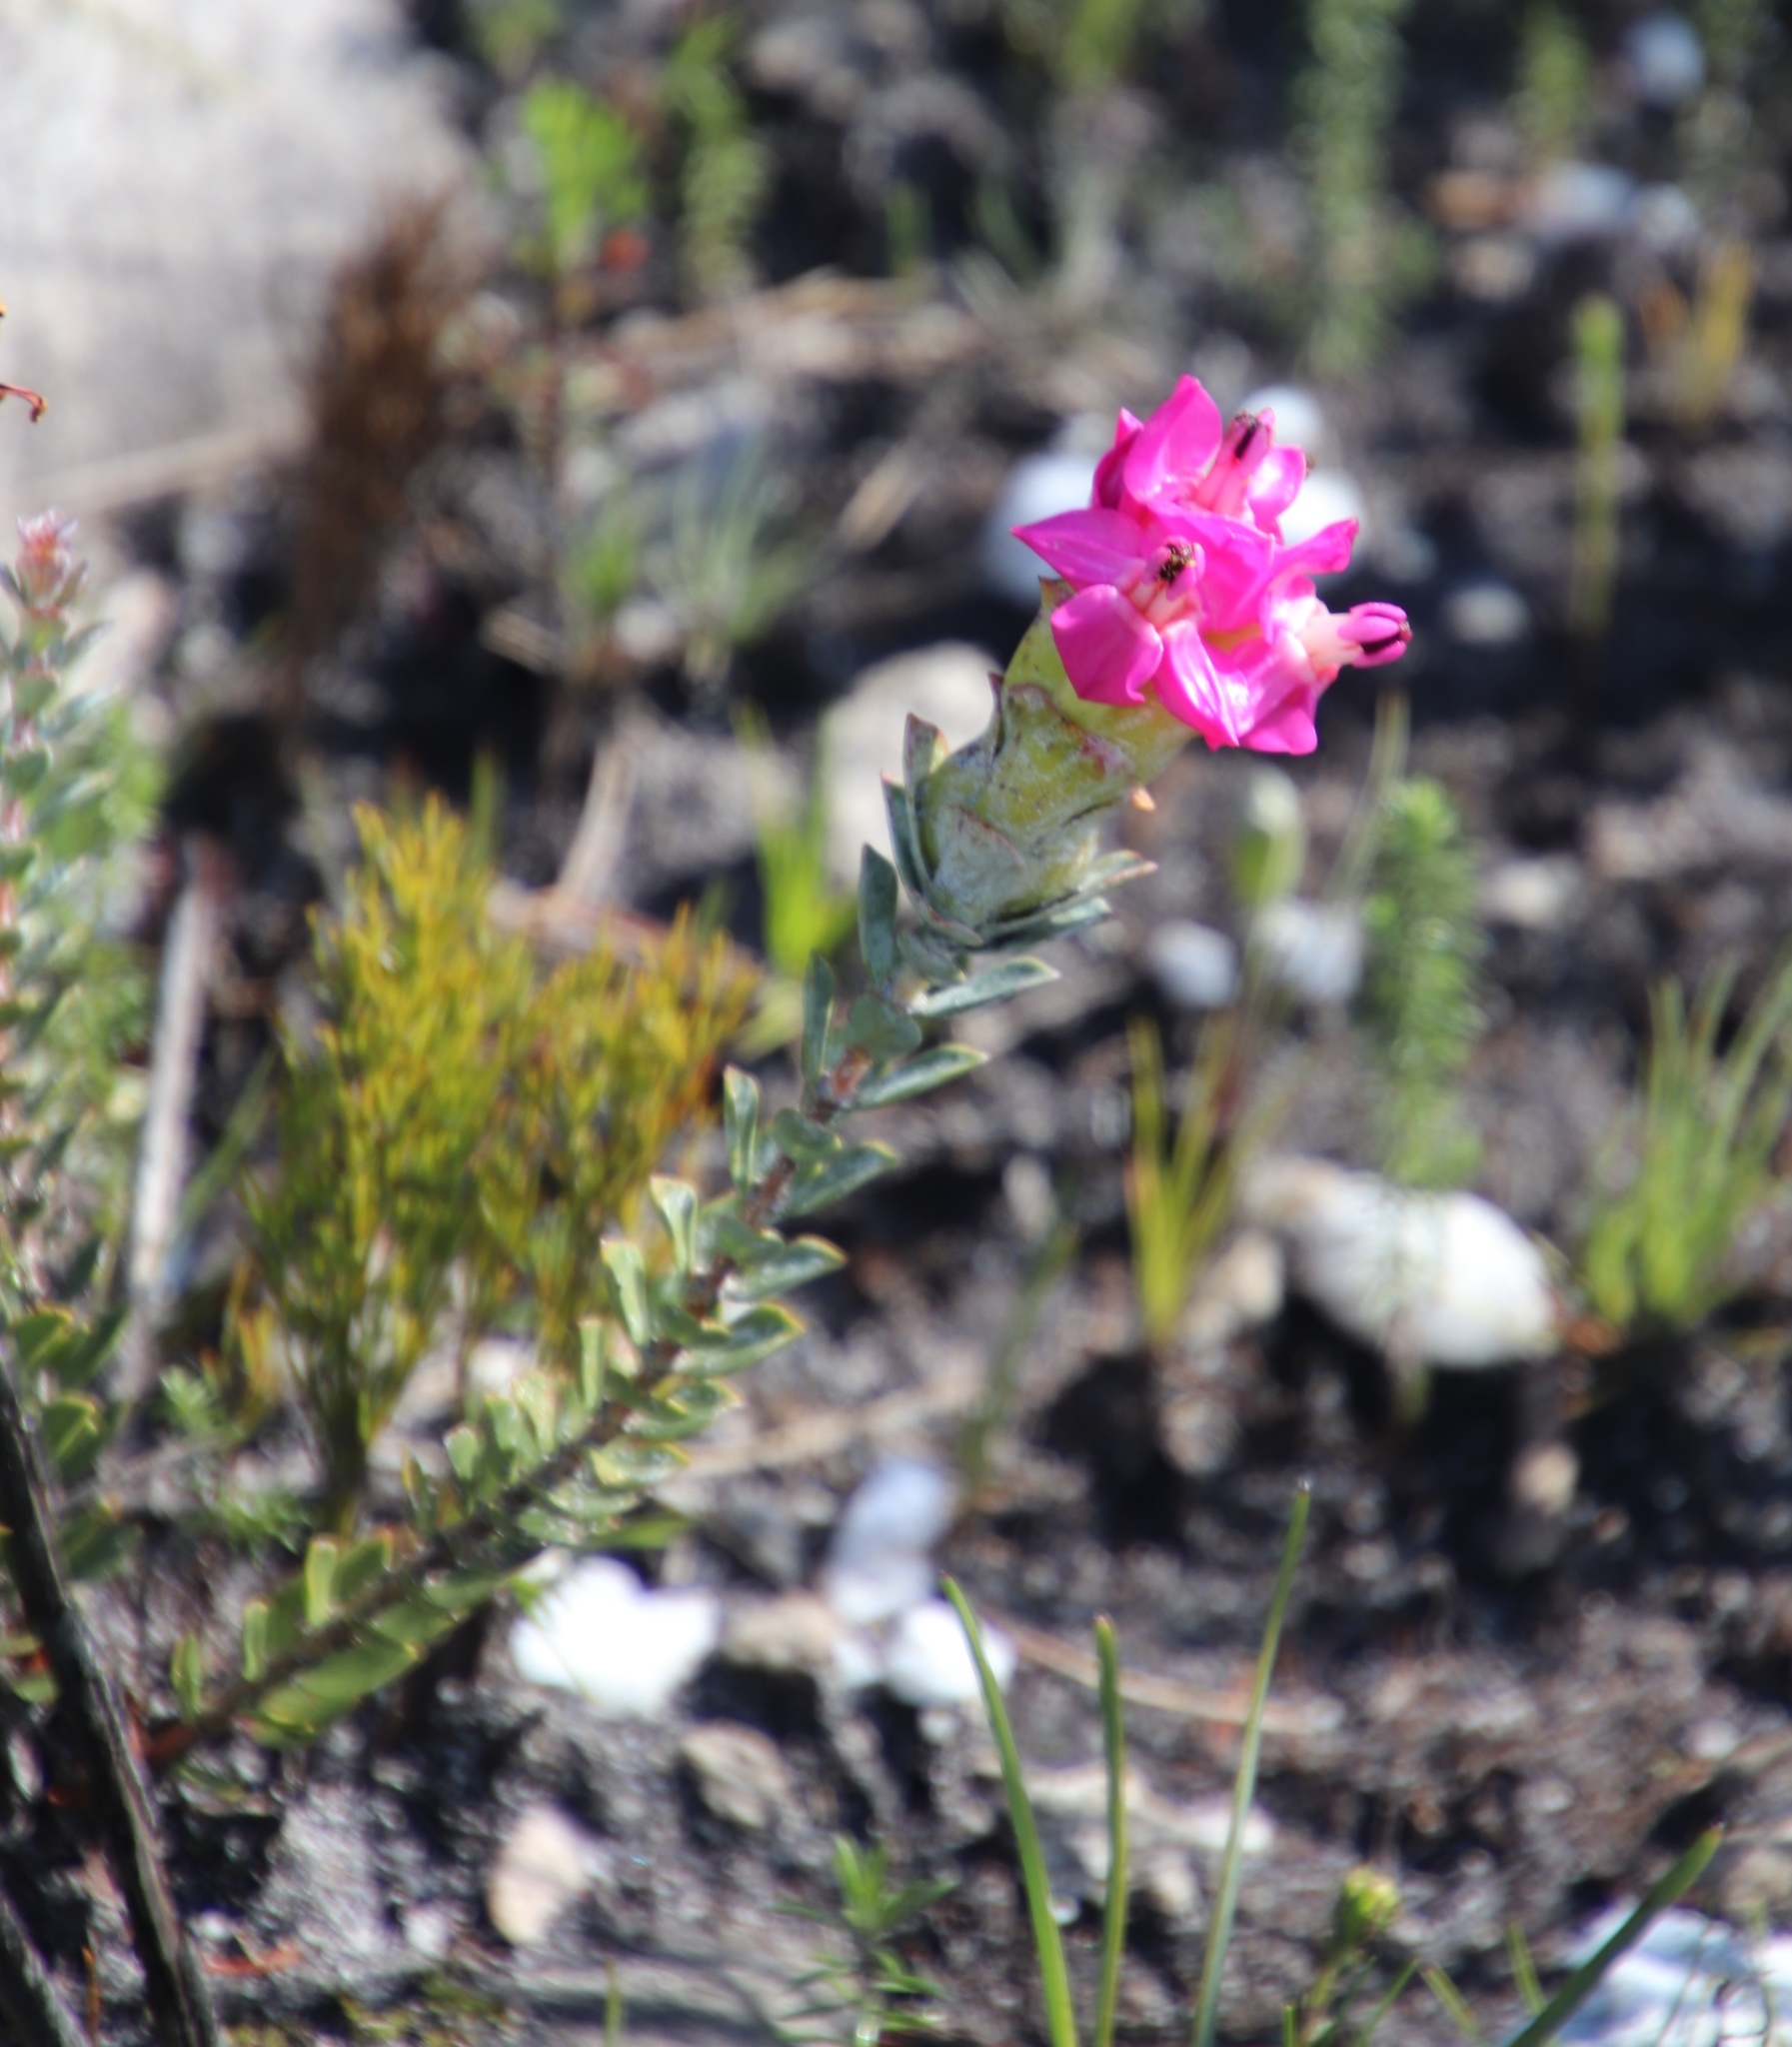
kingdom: Plantae
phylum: Tracheophyta
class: Magnoliopsida
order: Myrtales
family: Penaeaceae
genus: Saltera
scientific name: Saltera sarcocolla
